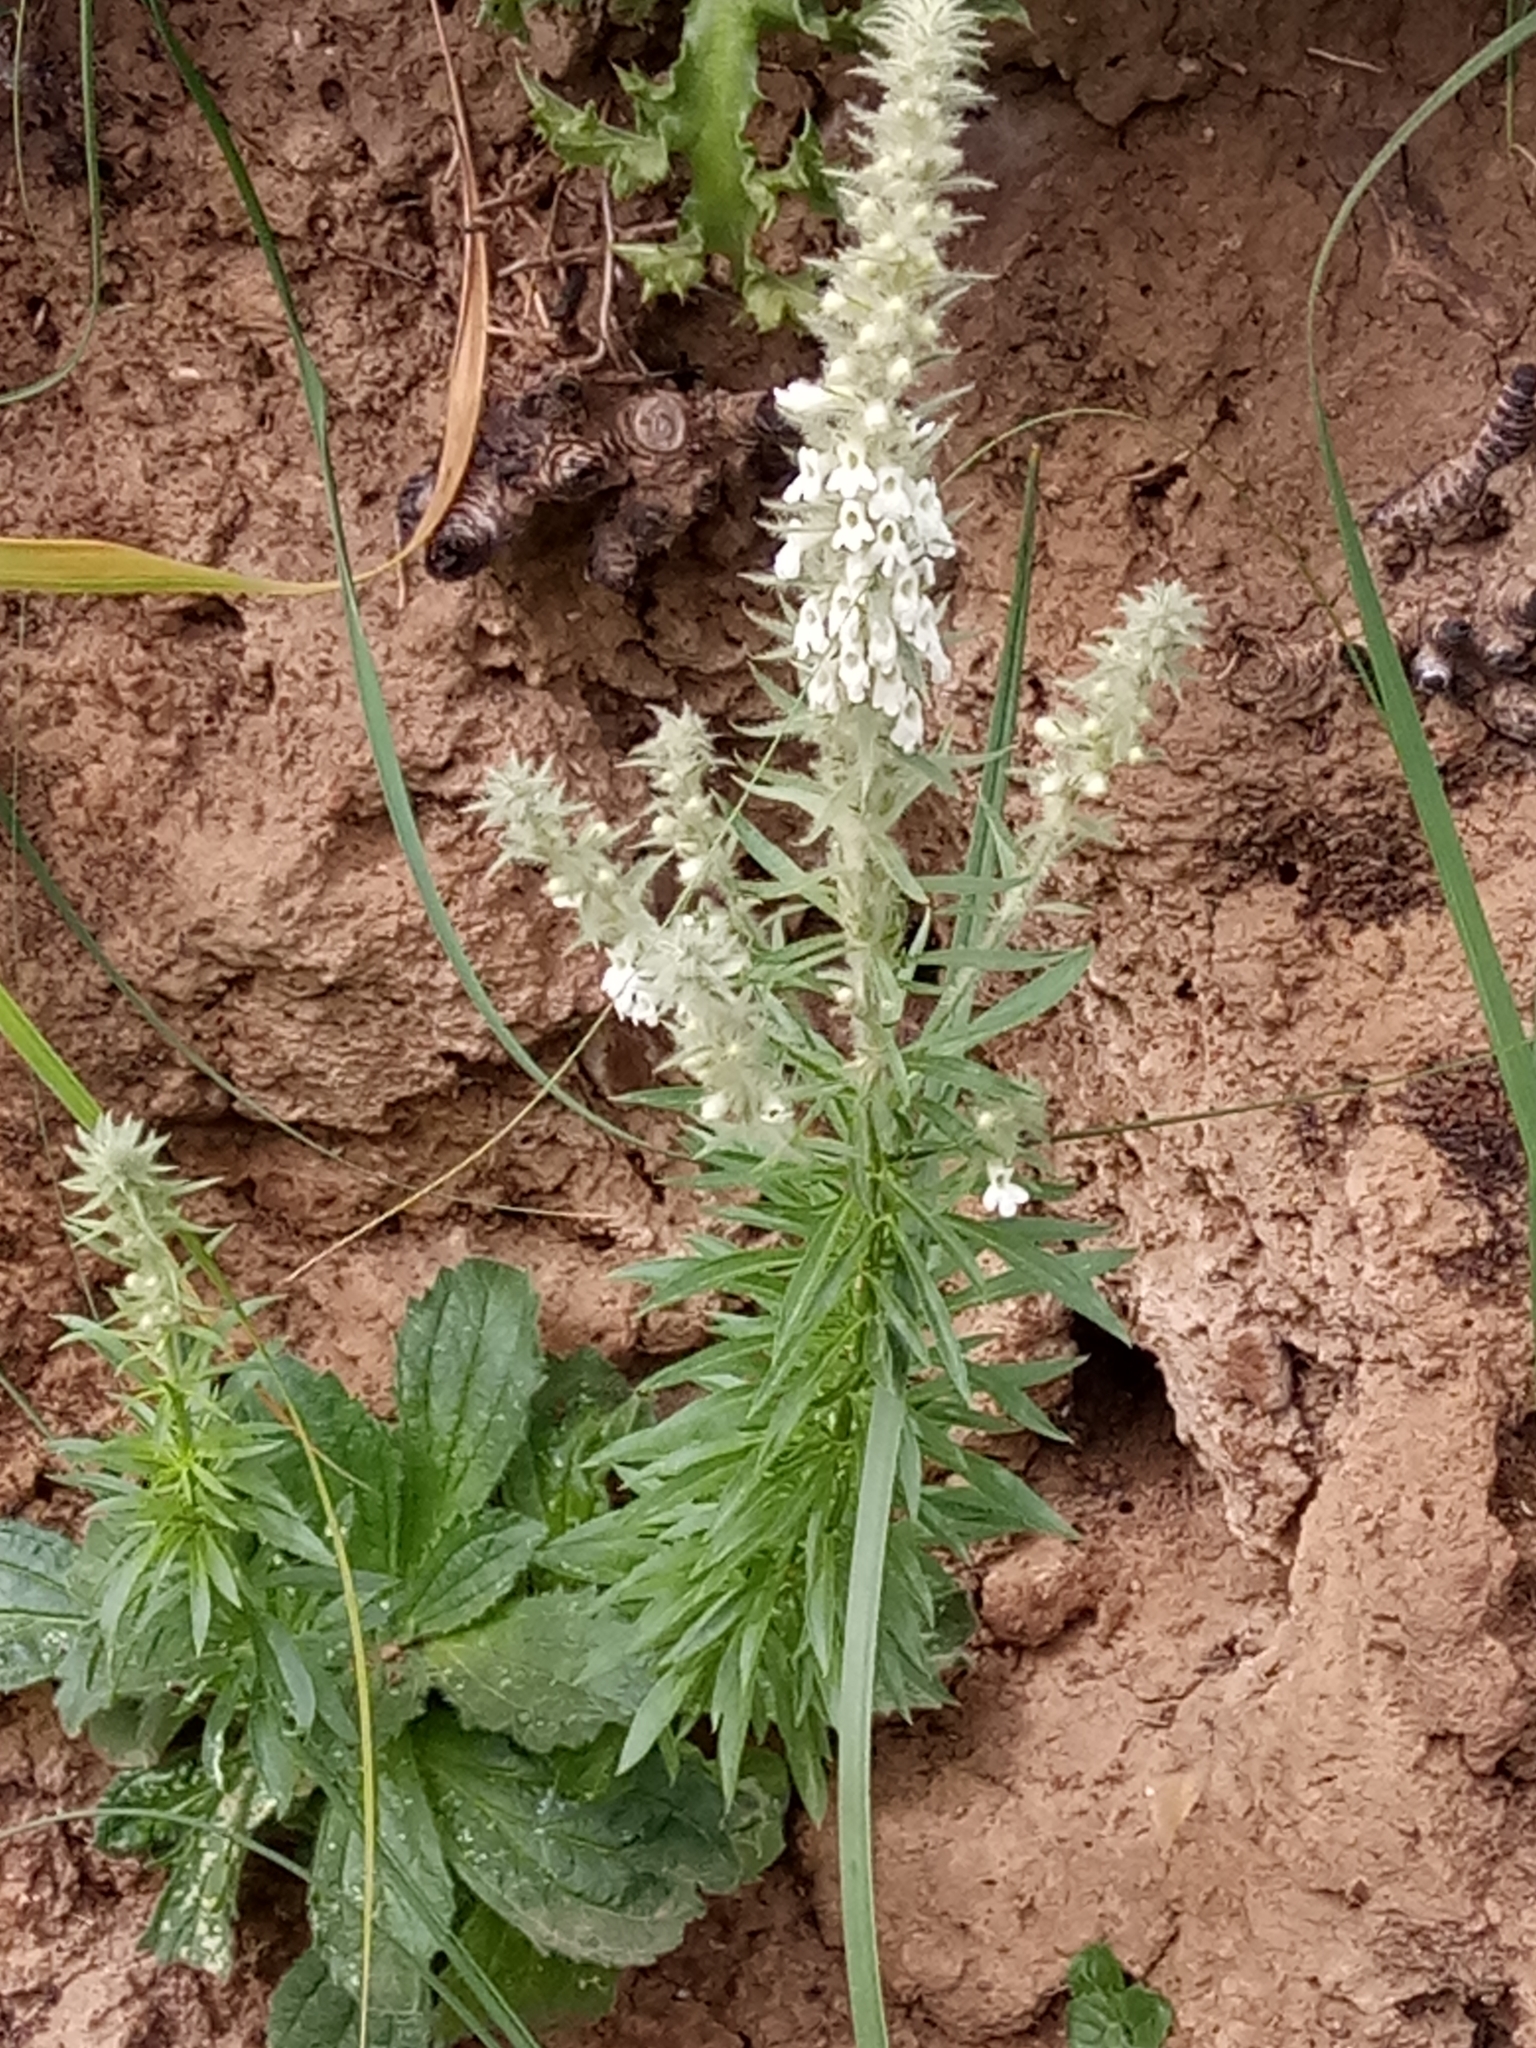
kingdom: Plantae
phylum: Tracheophyta
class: Magnoliopsida
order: Lamiales
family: Plantaginaceae
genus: Anarrhinum
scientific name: Anarrhinum pedatum
